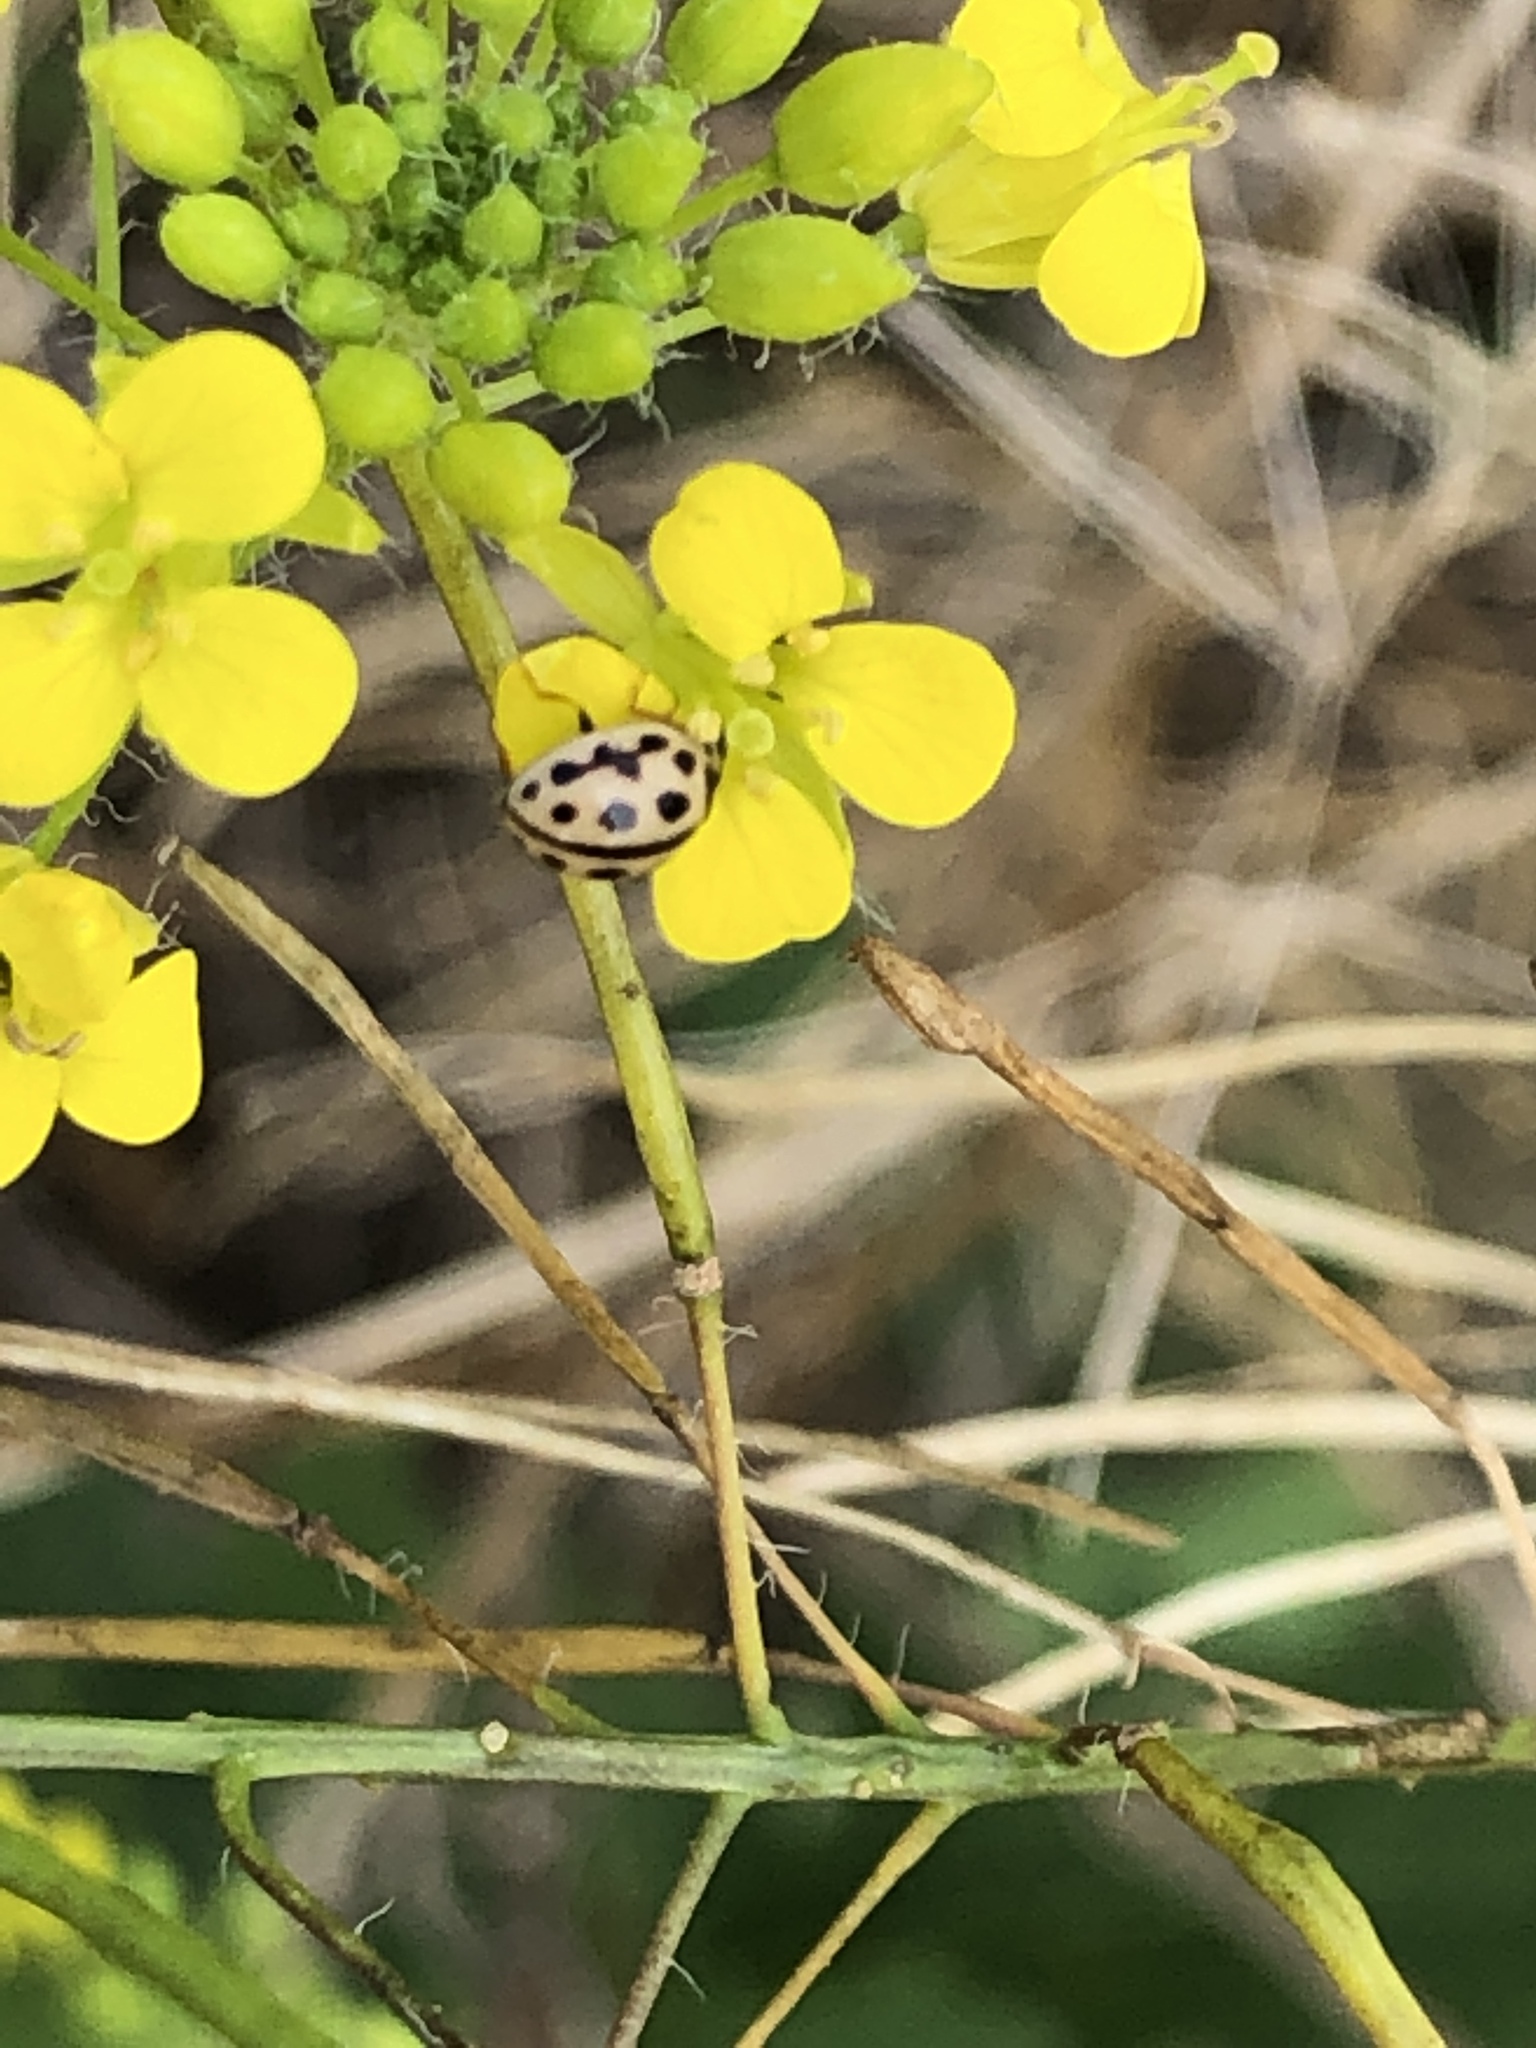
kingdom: Animalia
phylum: Arthropoda
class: Insecta
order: Coleoptera
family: Coccinellidae
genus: Tytthaspis
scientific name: Tytthaspis sedecimpunctata
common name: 16-spot ladybird
